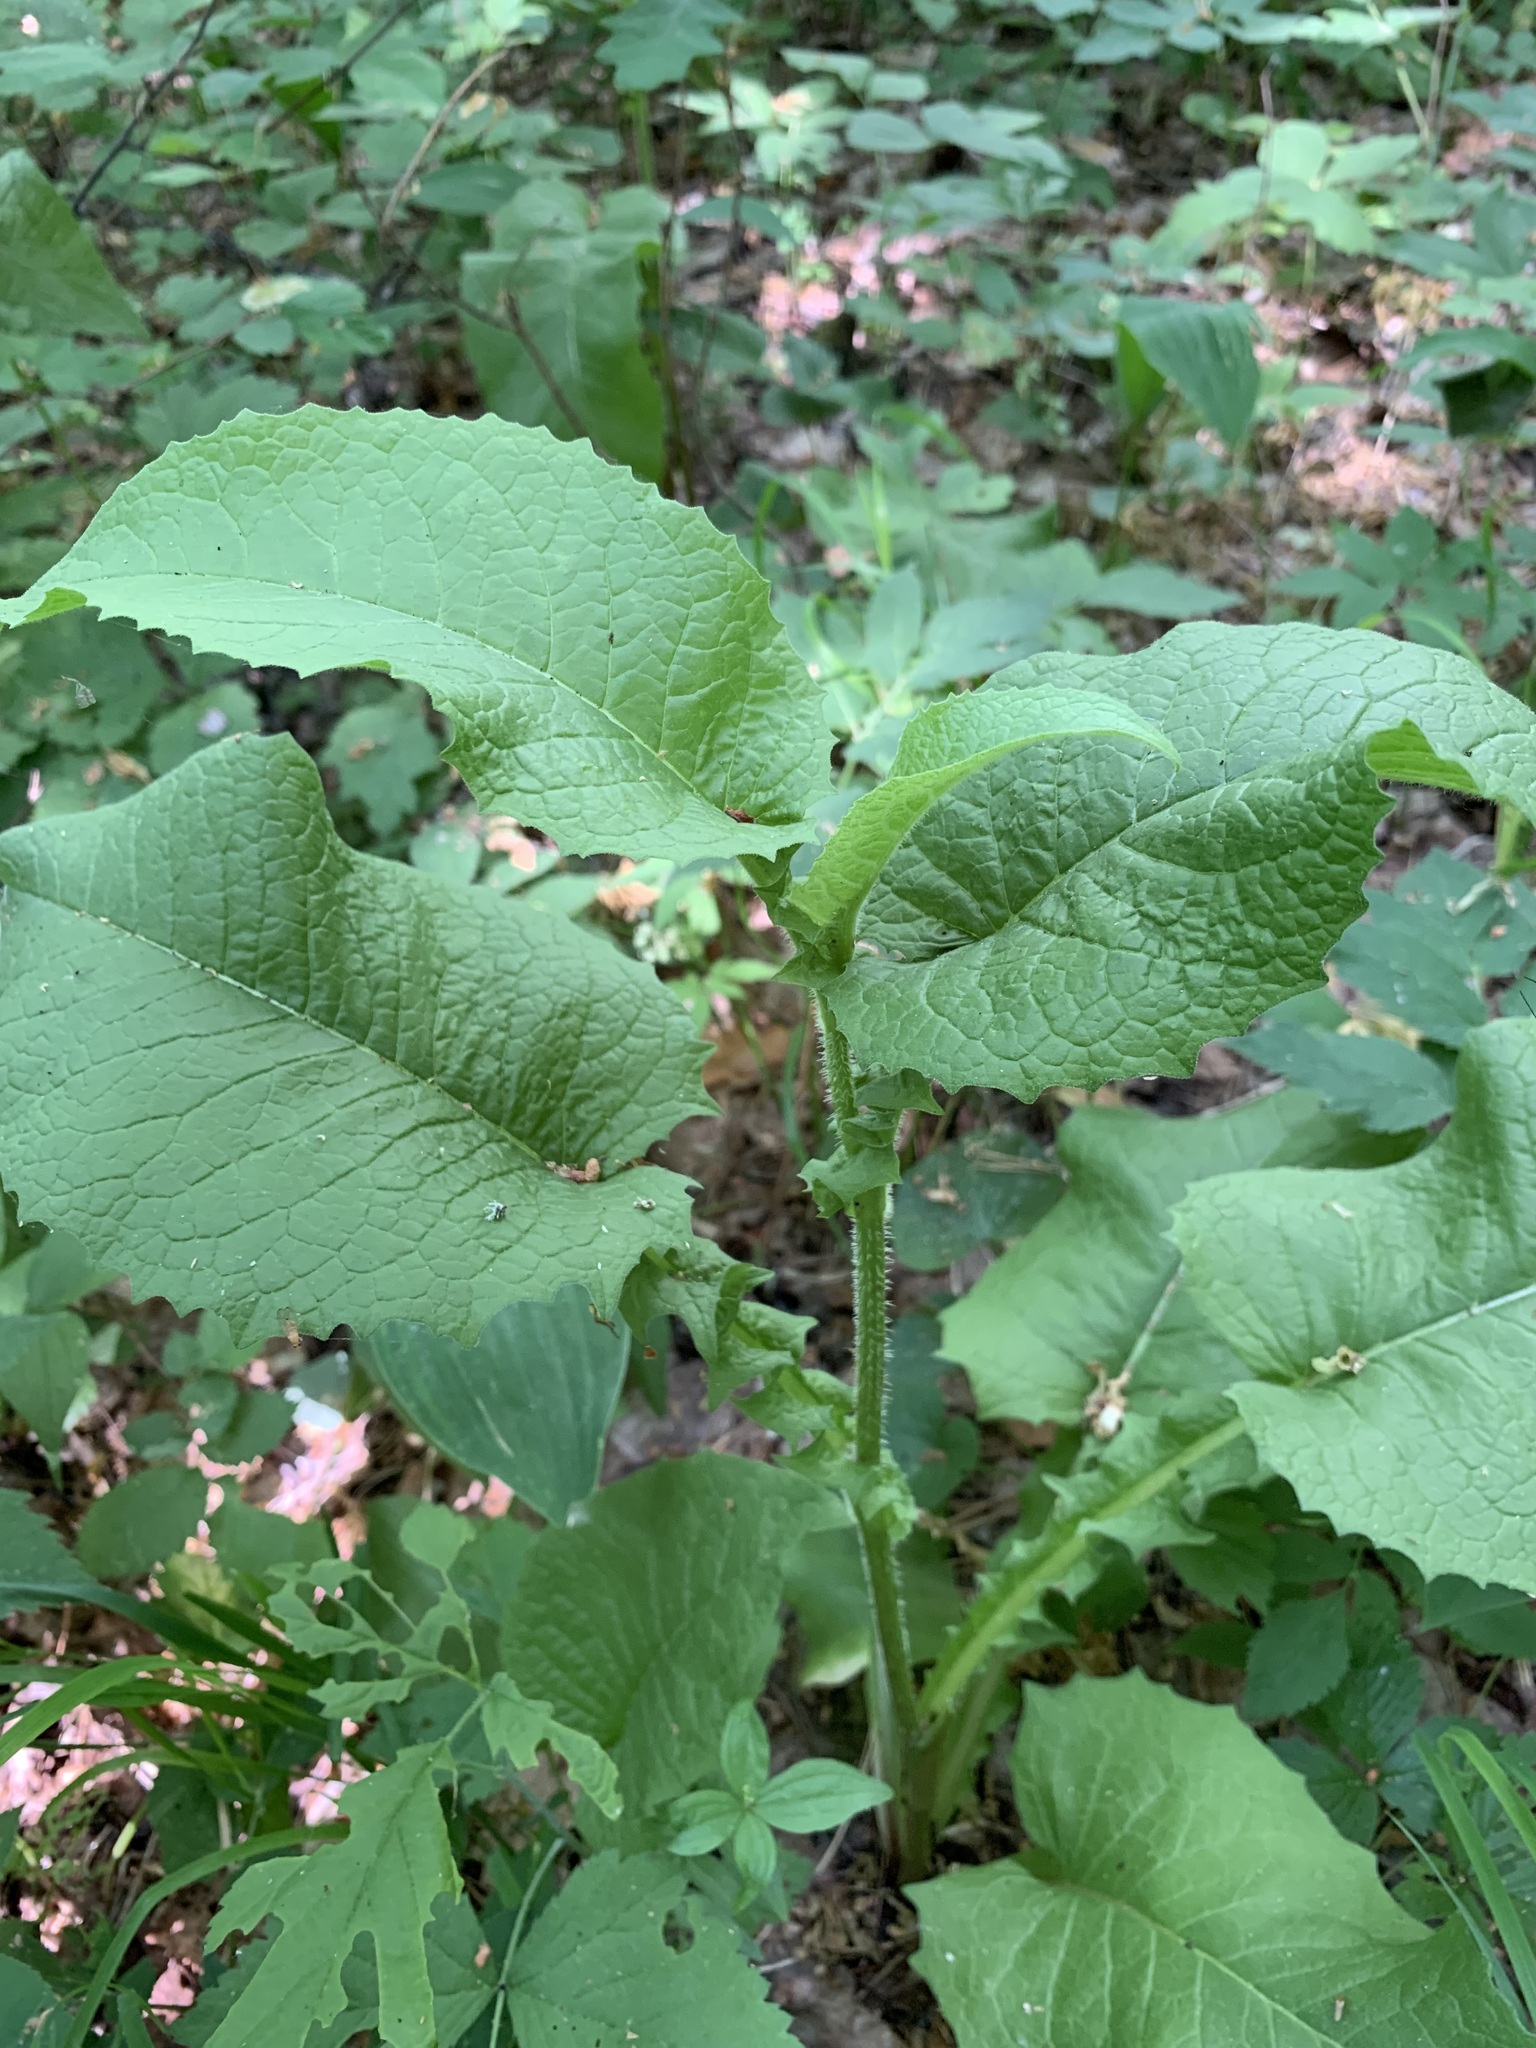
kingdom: Plantae
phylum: Tracheophyta
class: Magnoliopsida
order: Asterales
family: Asteraceae
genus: Crepis
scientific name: Crepis sibirica
